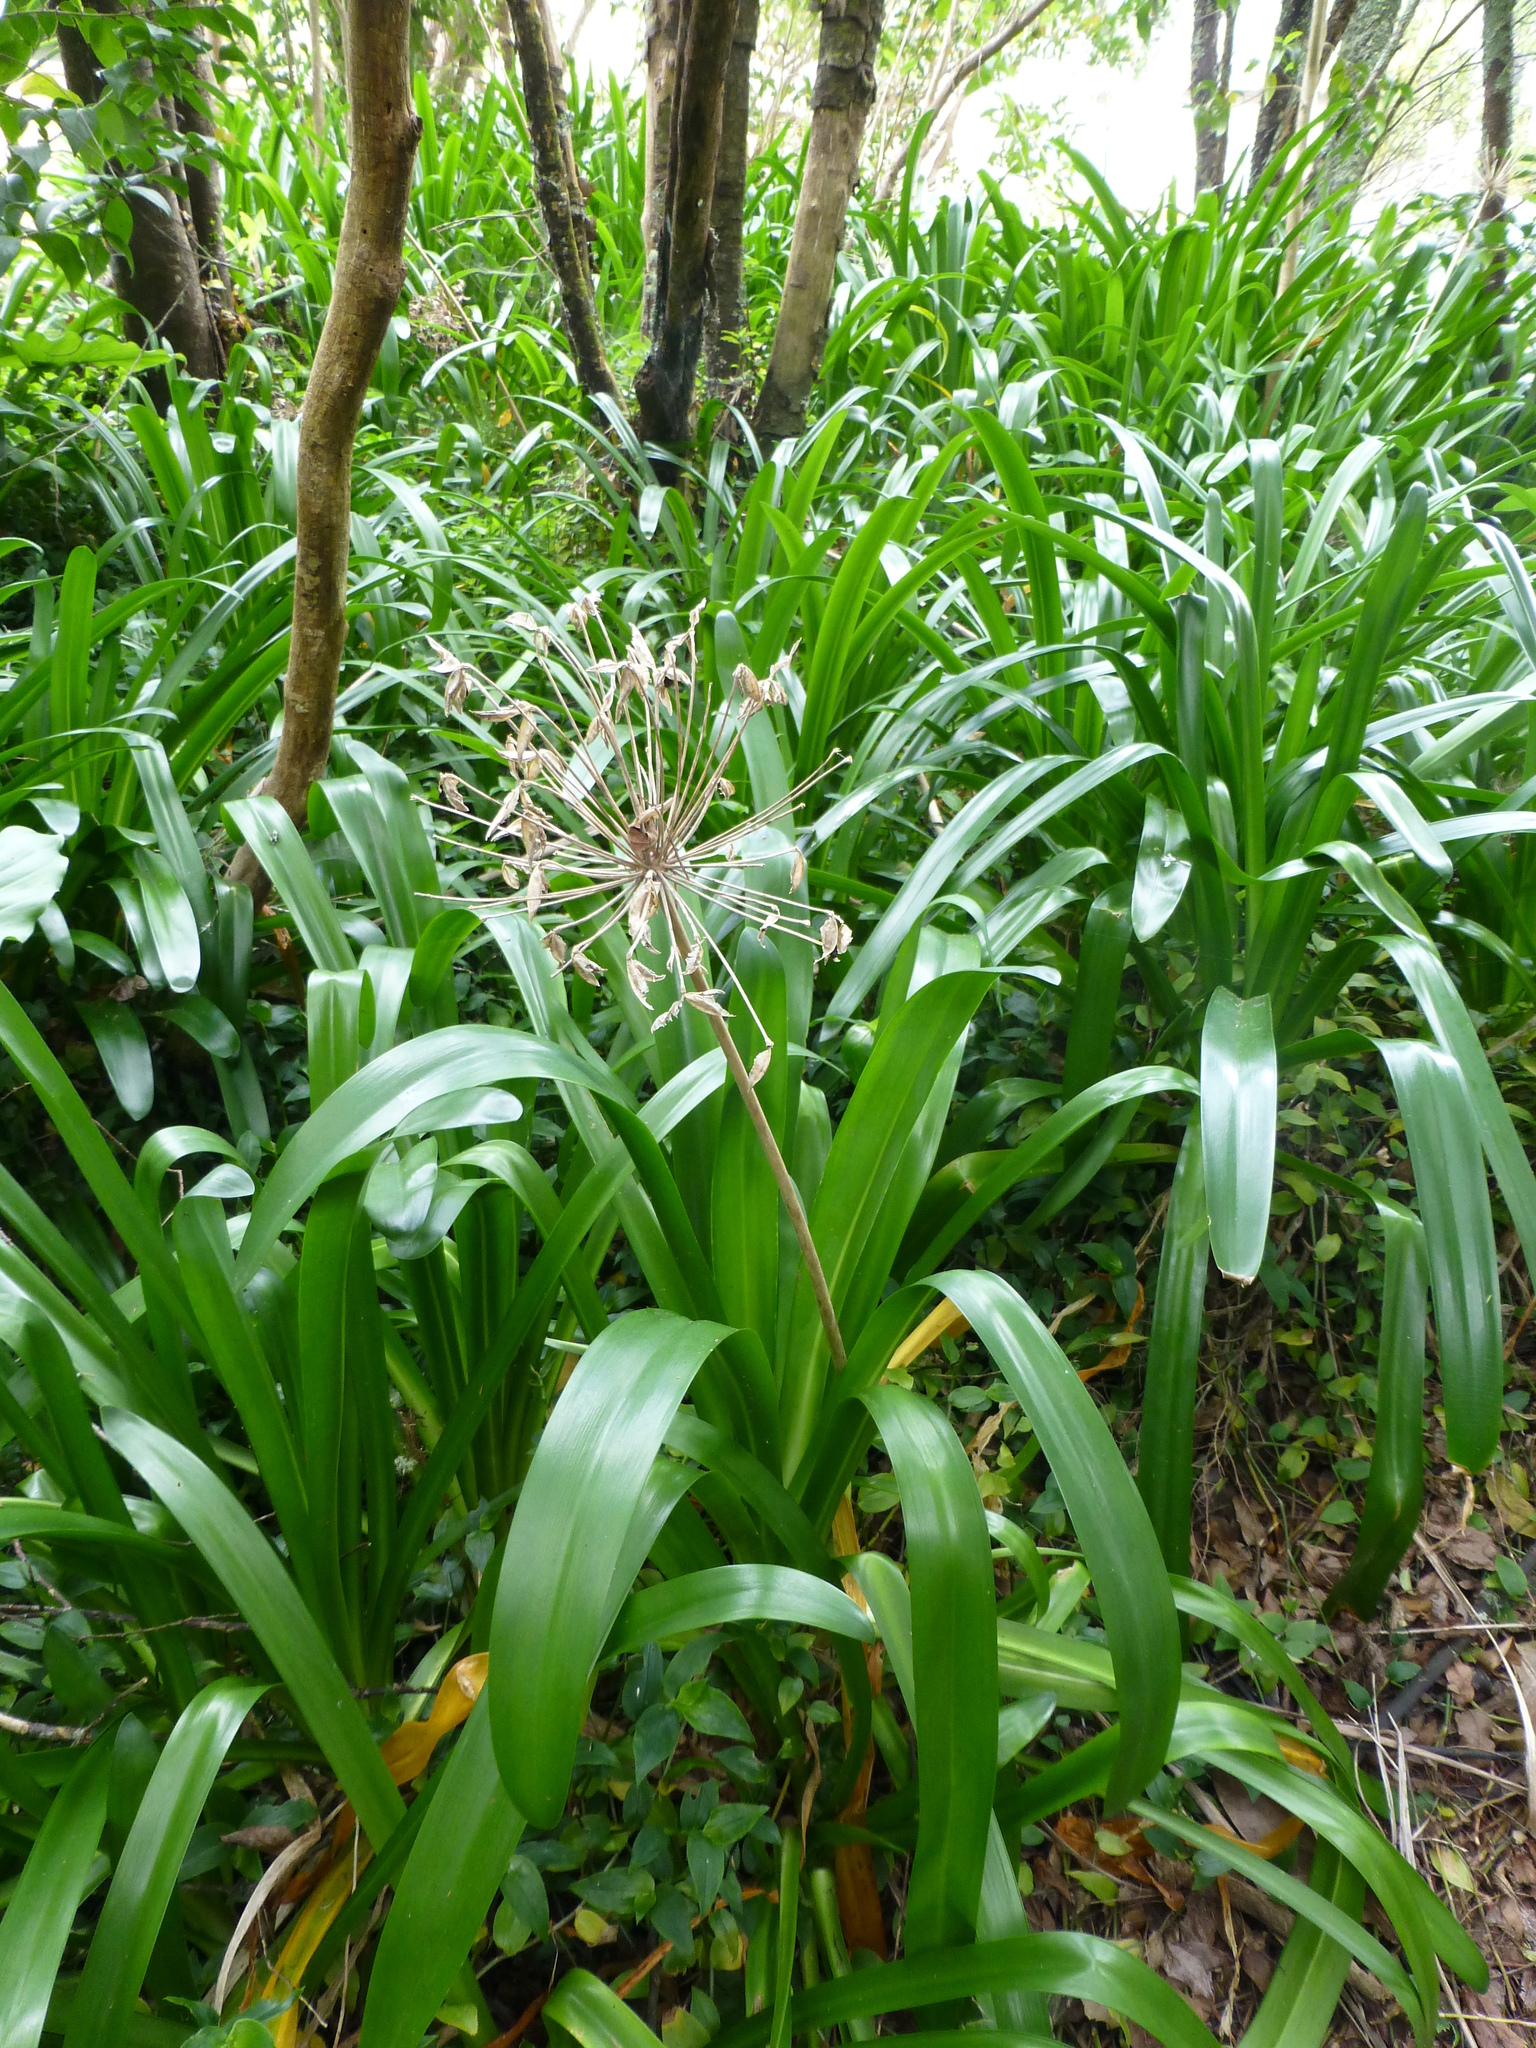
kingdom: Plantae
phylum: Tracheophyta
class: Liliopsida
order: Asparagales
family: Amaryllidaceae
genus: Agapanthus
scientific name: Agapanthus praecox
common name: African-lily
